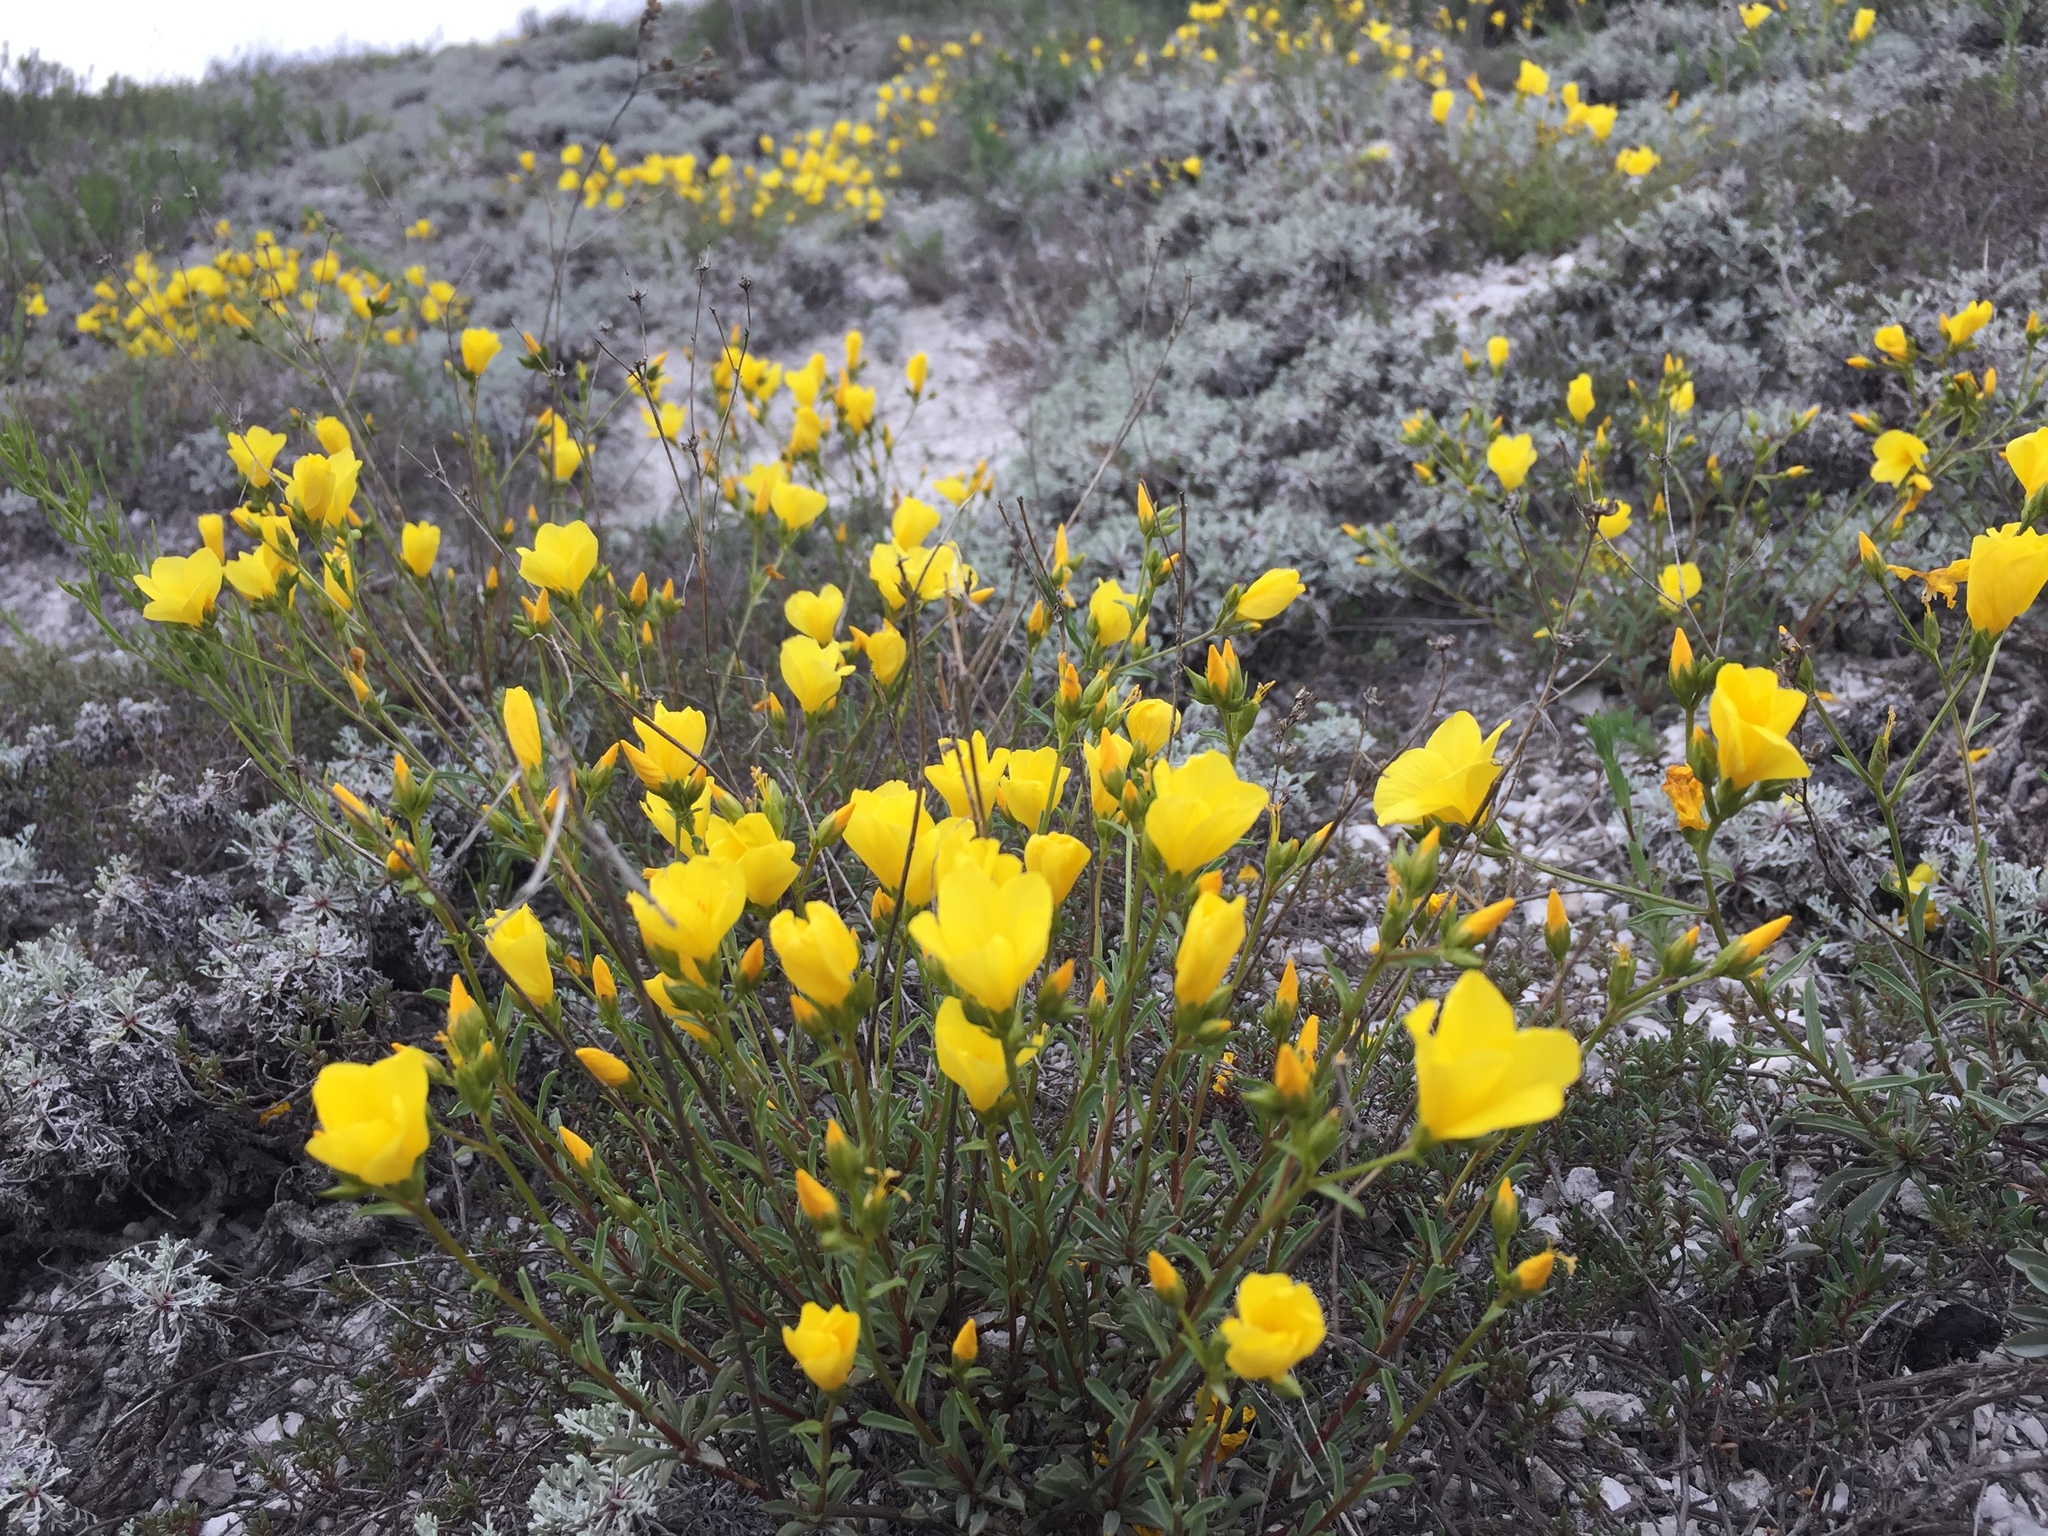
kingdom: Plantae
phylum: Tracheophyta
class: Magnoliopsida
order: Malpighiales
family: Linaceae
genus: Linum
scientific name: Linum ucranicum
